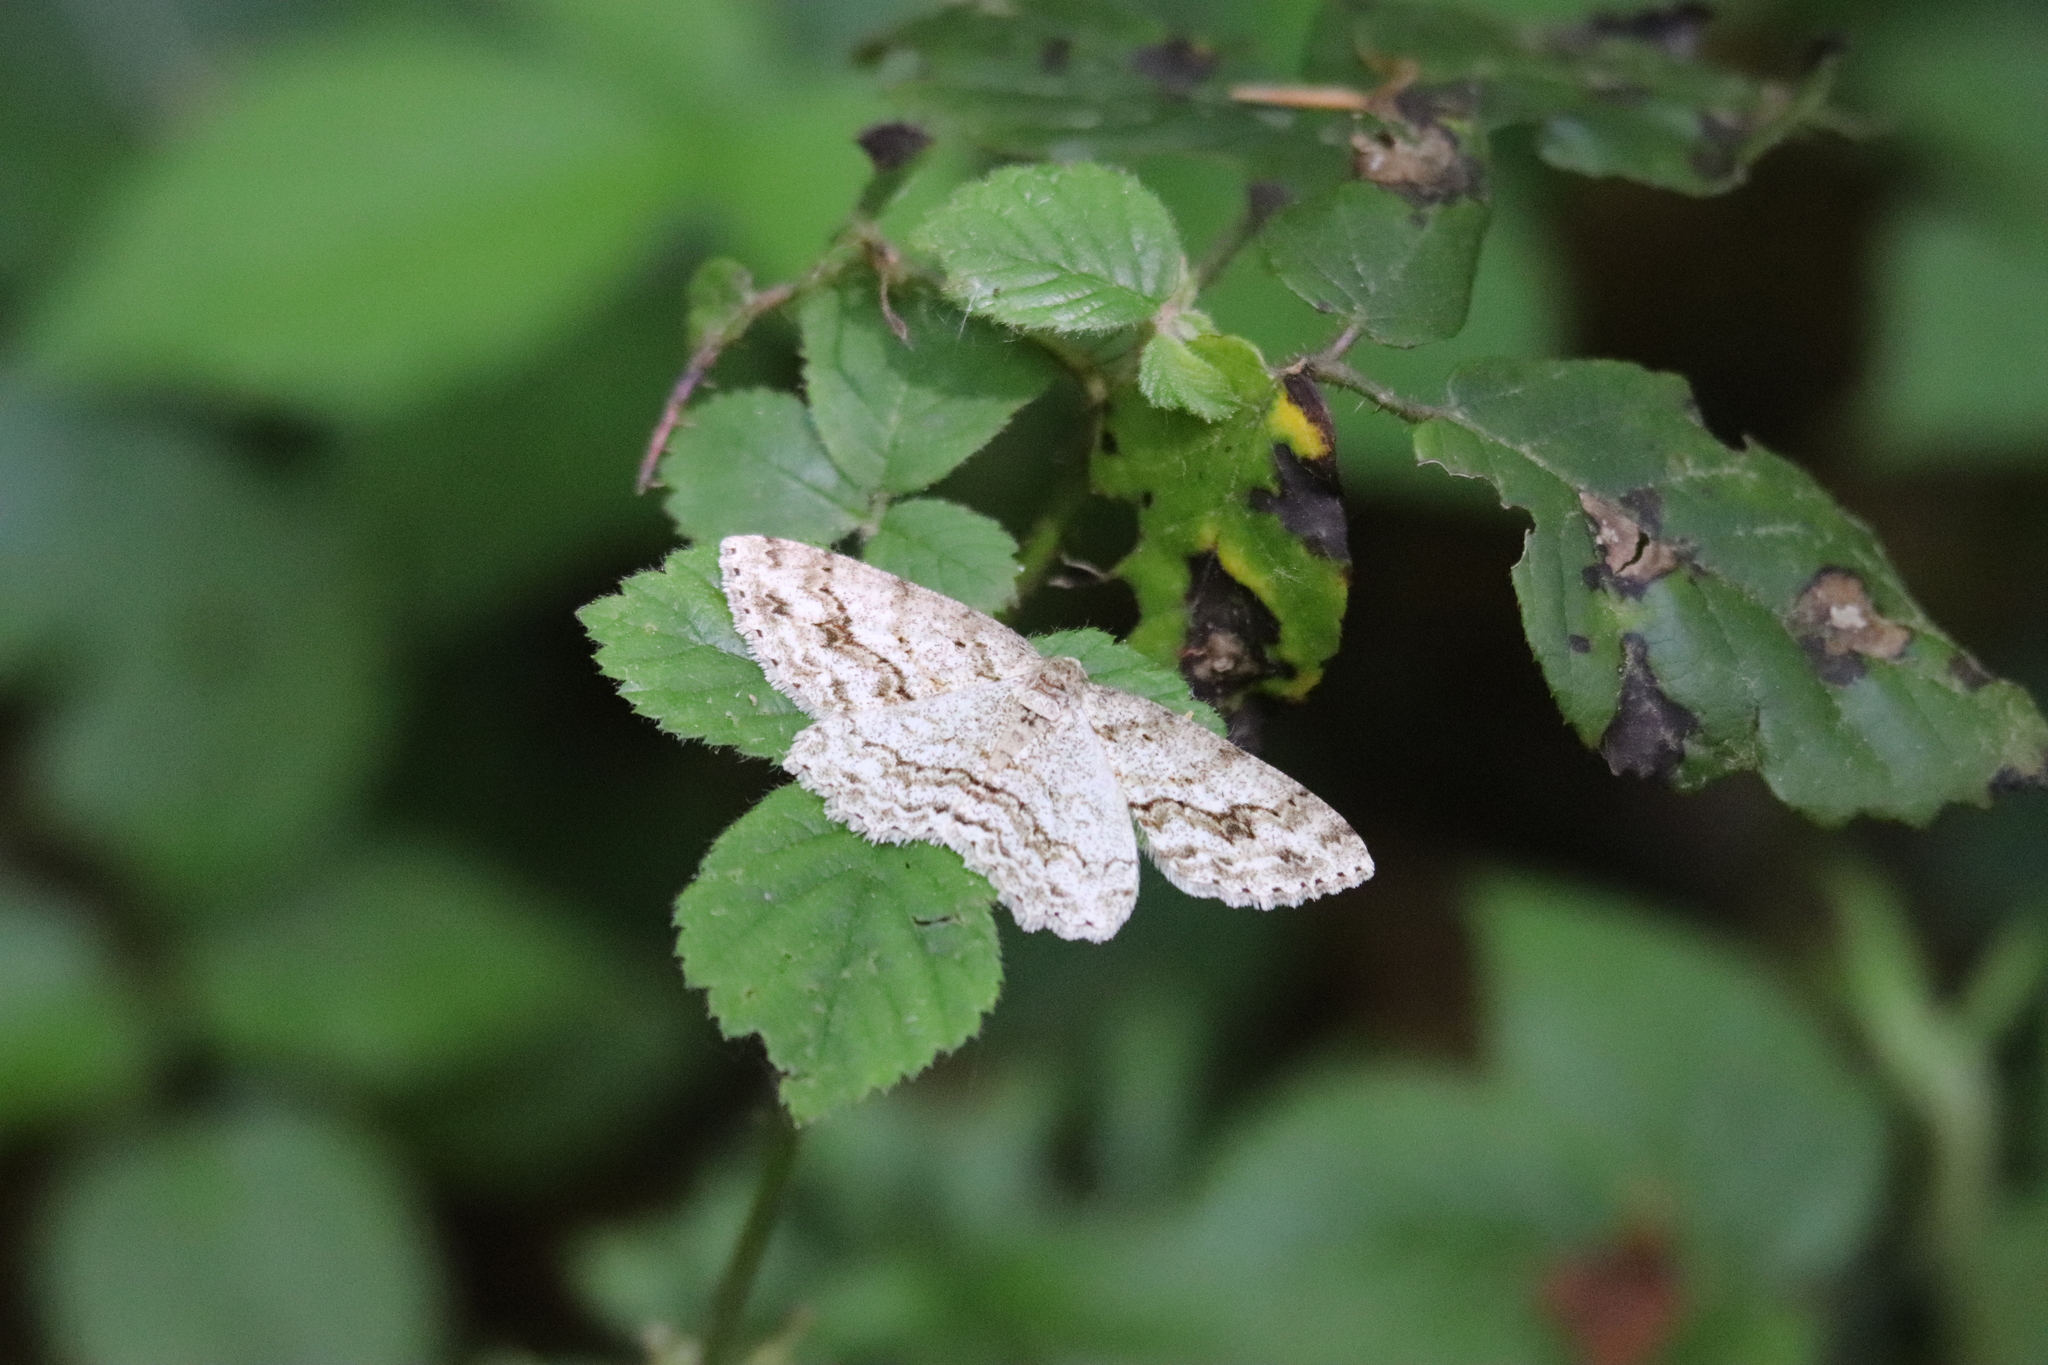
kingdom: Animalia
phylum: Arthropoda
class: Insecta
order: Lepidoptera
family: Geometridae
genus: Ectropis
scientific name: Ectropis crepuscularia
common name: Engrailed
